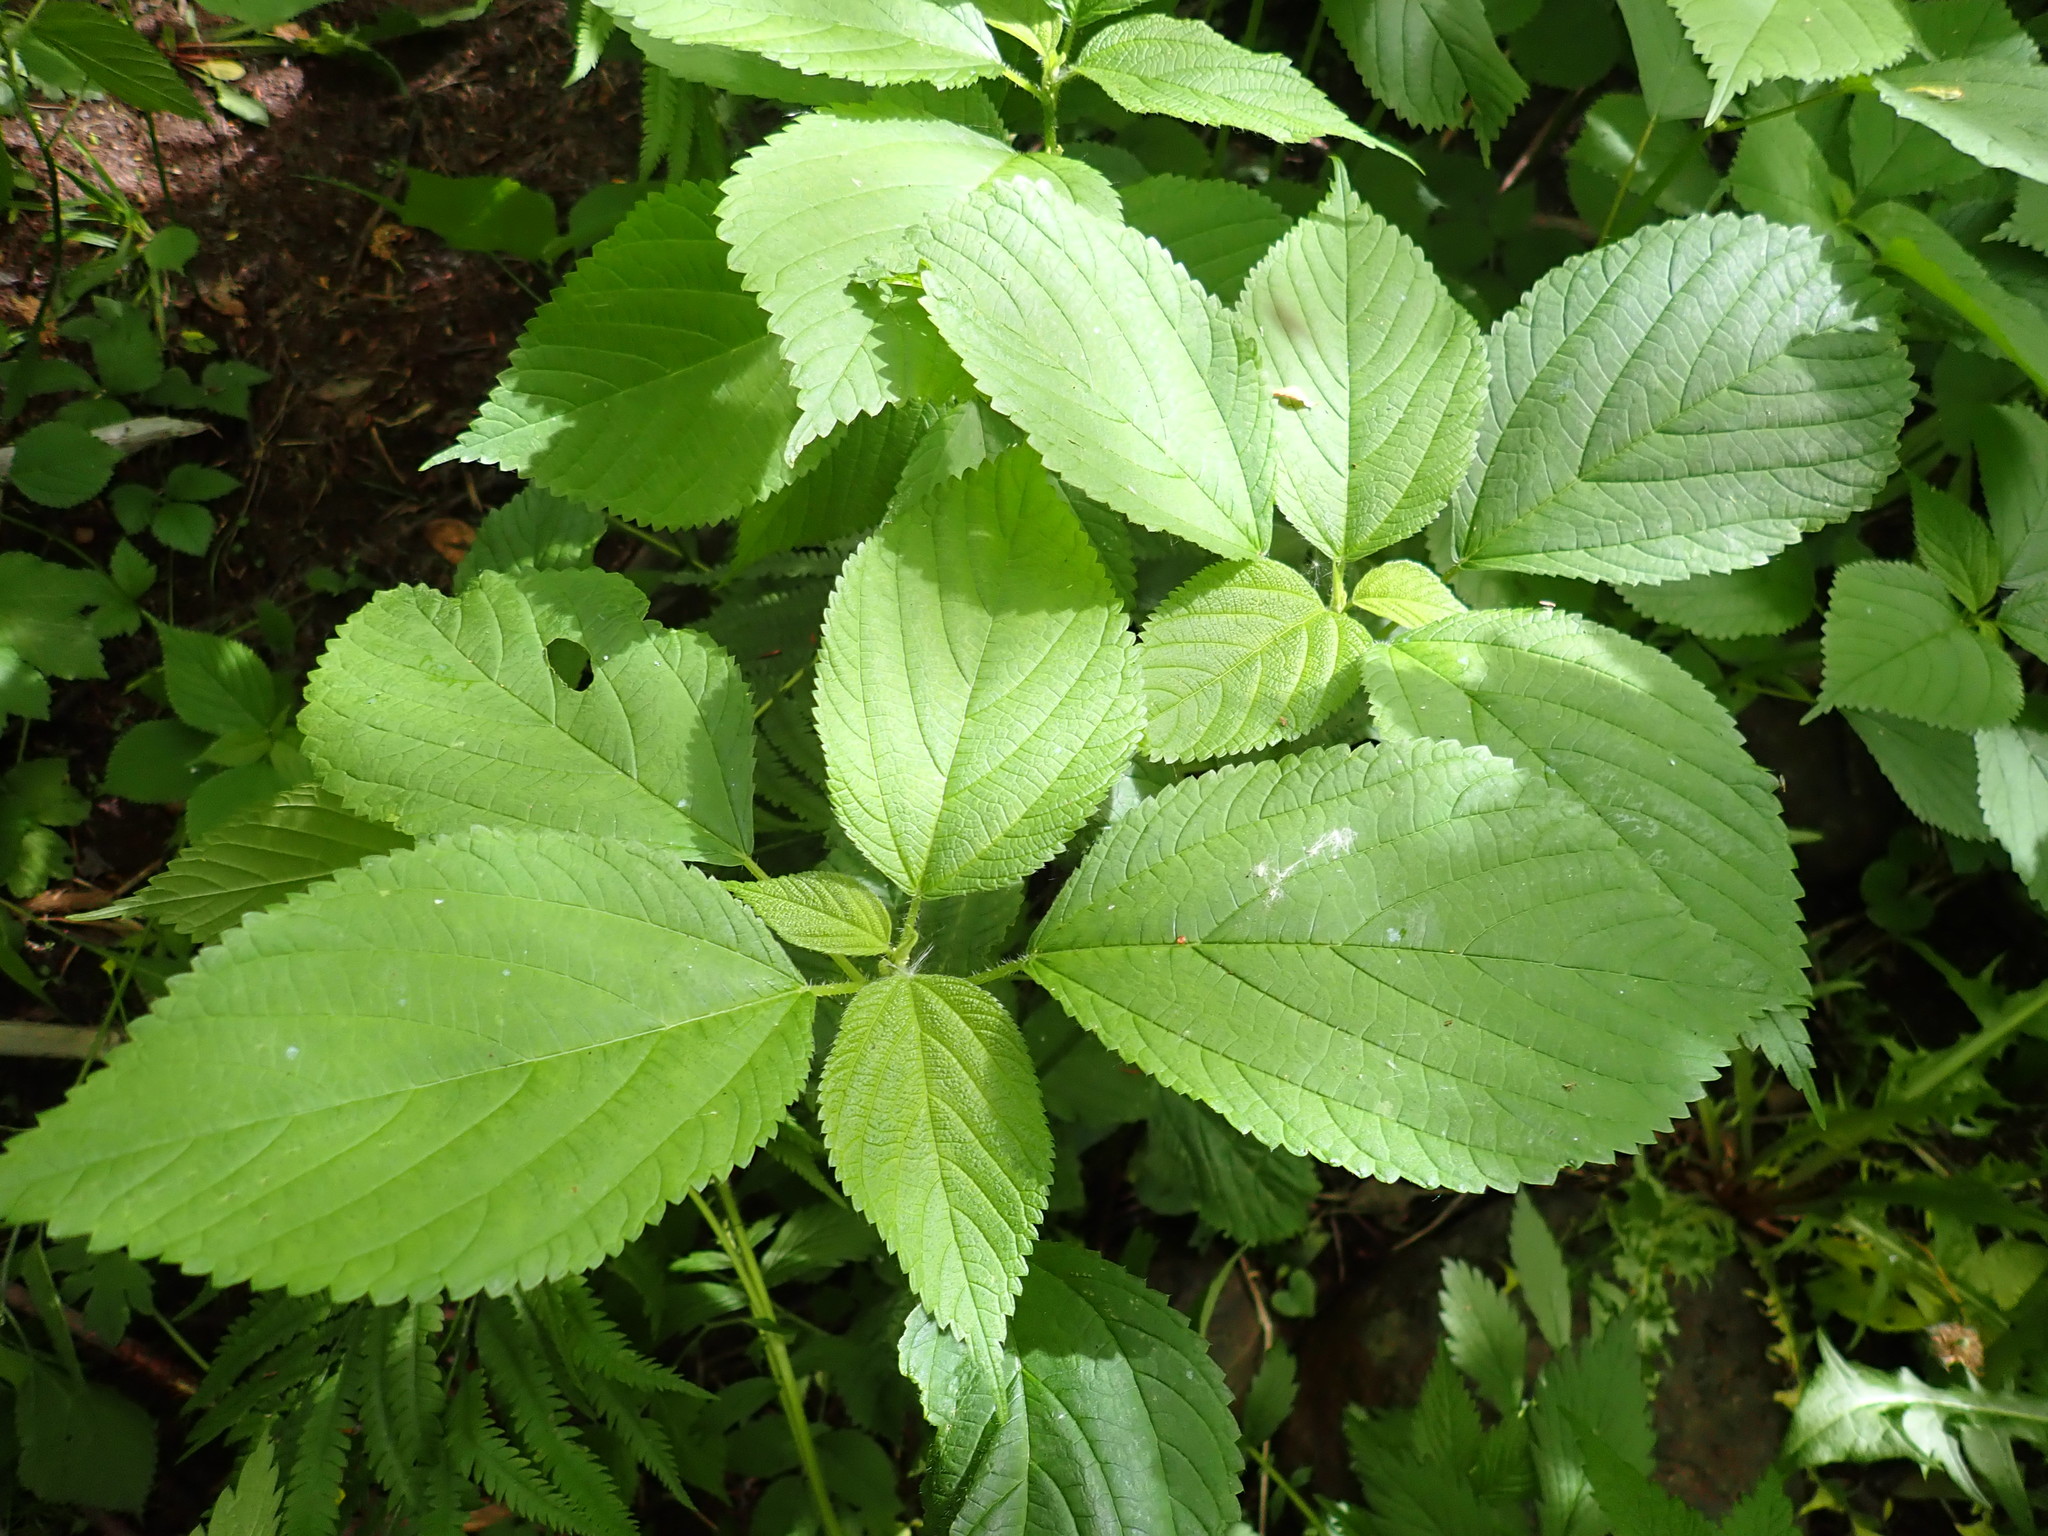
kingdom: Plantae
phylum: Tracheophyta
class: Magnoliopsida
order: Rosales
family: Urticaceae
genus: Laportea
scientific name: Laportea canadensis
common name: Canada nettle
